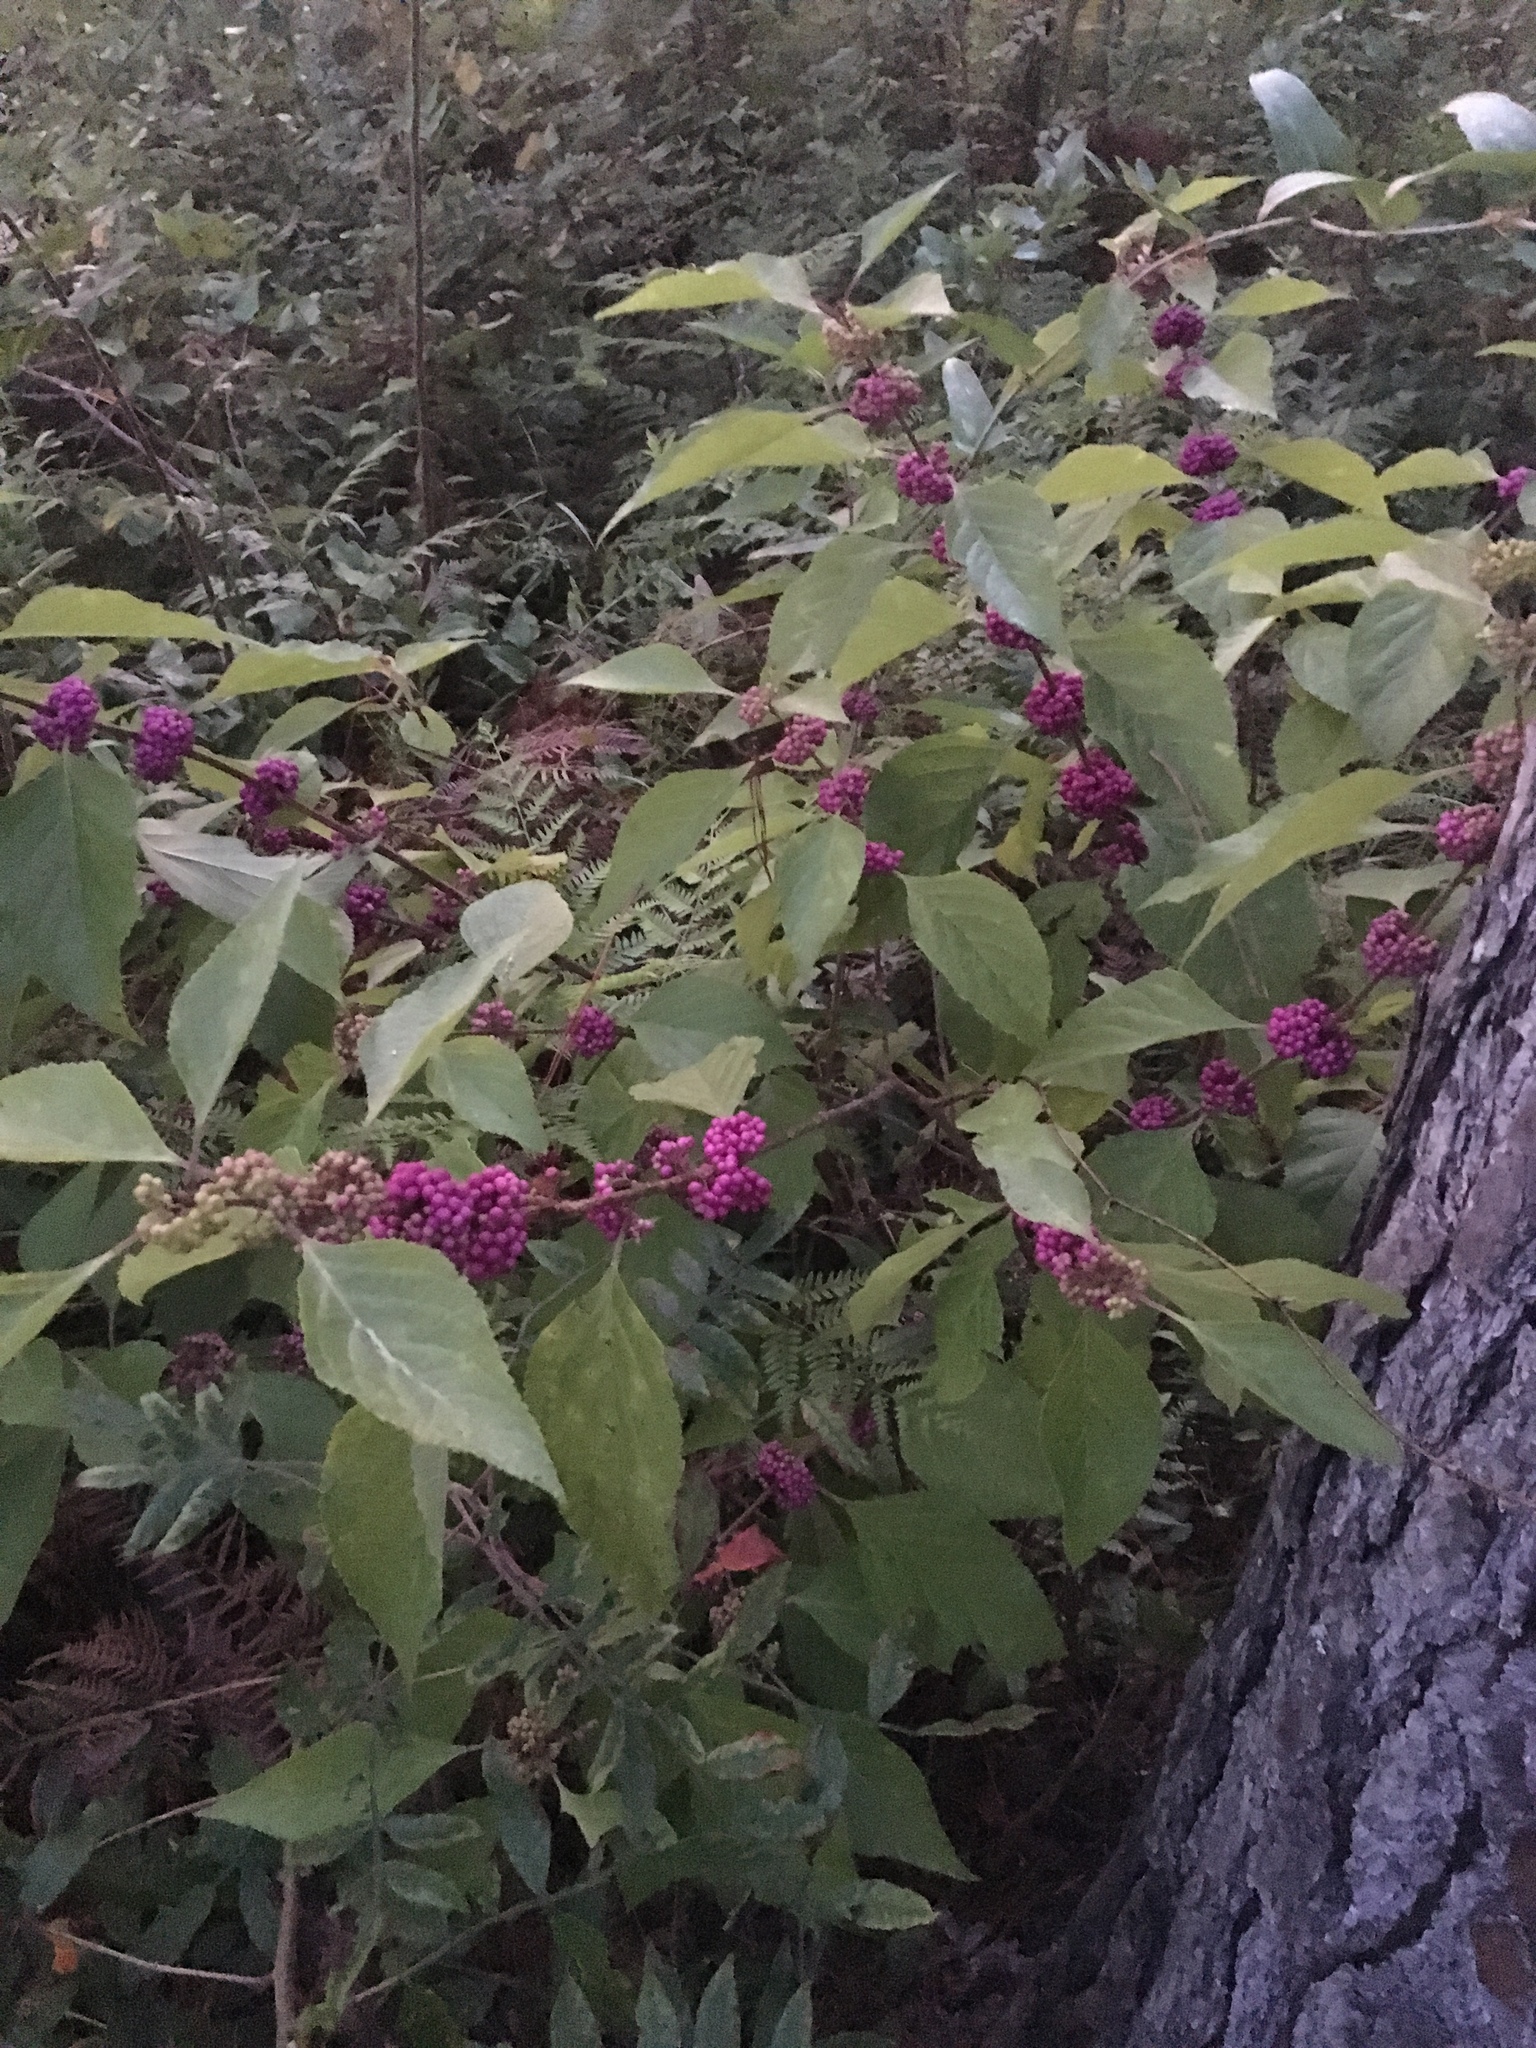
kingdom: Plantae
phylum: Tracheophyta
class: Magnoliopsida
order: Lamiales
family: Lamiaceae
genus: Callicarpa
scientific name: Callicarpa americana
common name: American beautyberry
